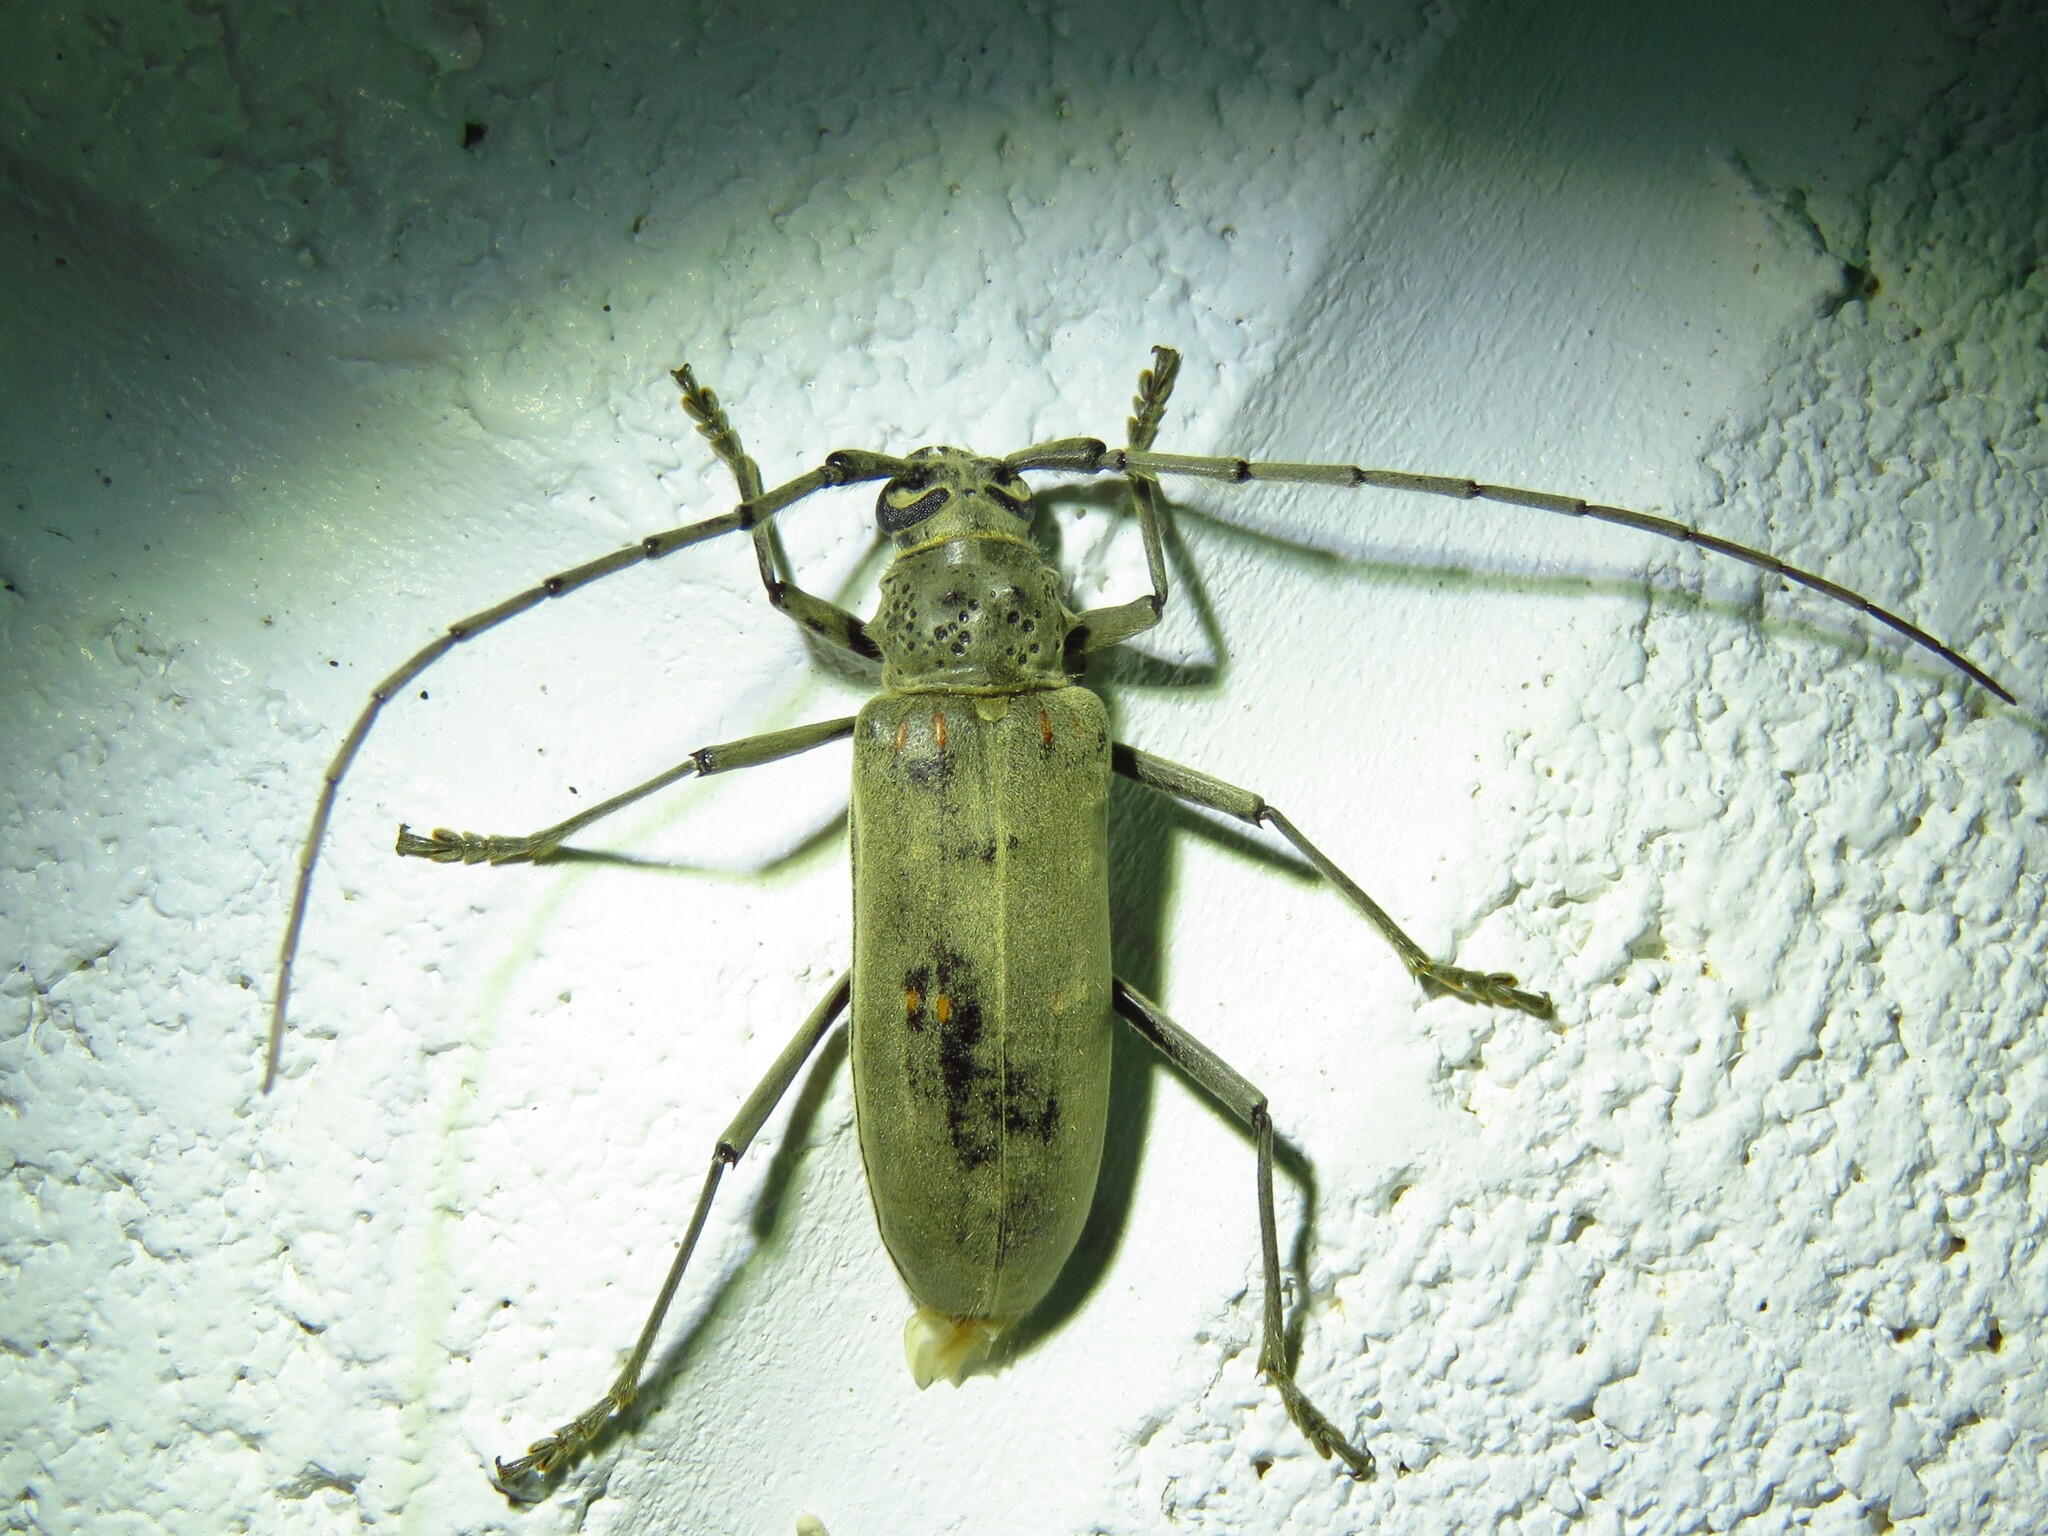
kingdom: Animalia
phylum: Arthropoda
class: Insecta
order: Coleoptera
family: Cerambycidae
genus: Susuacanga
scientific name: Susuacanga stigmatica
